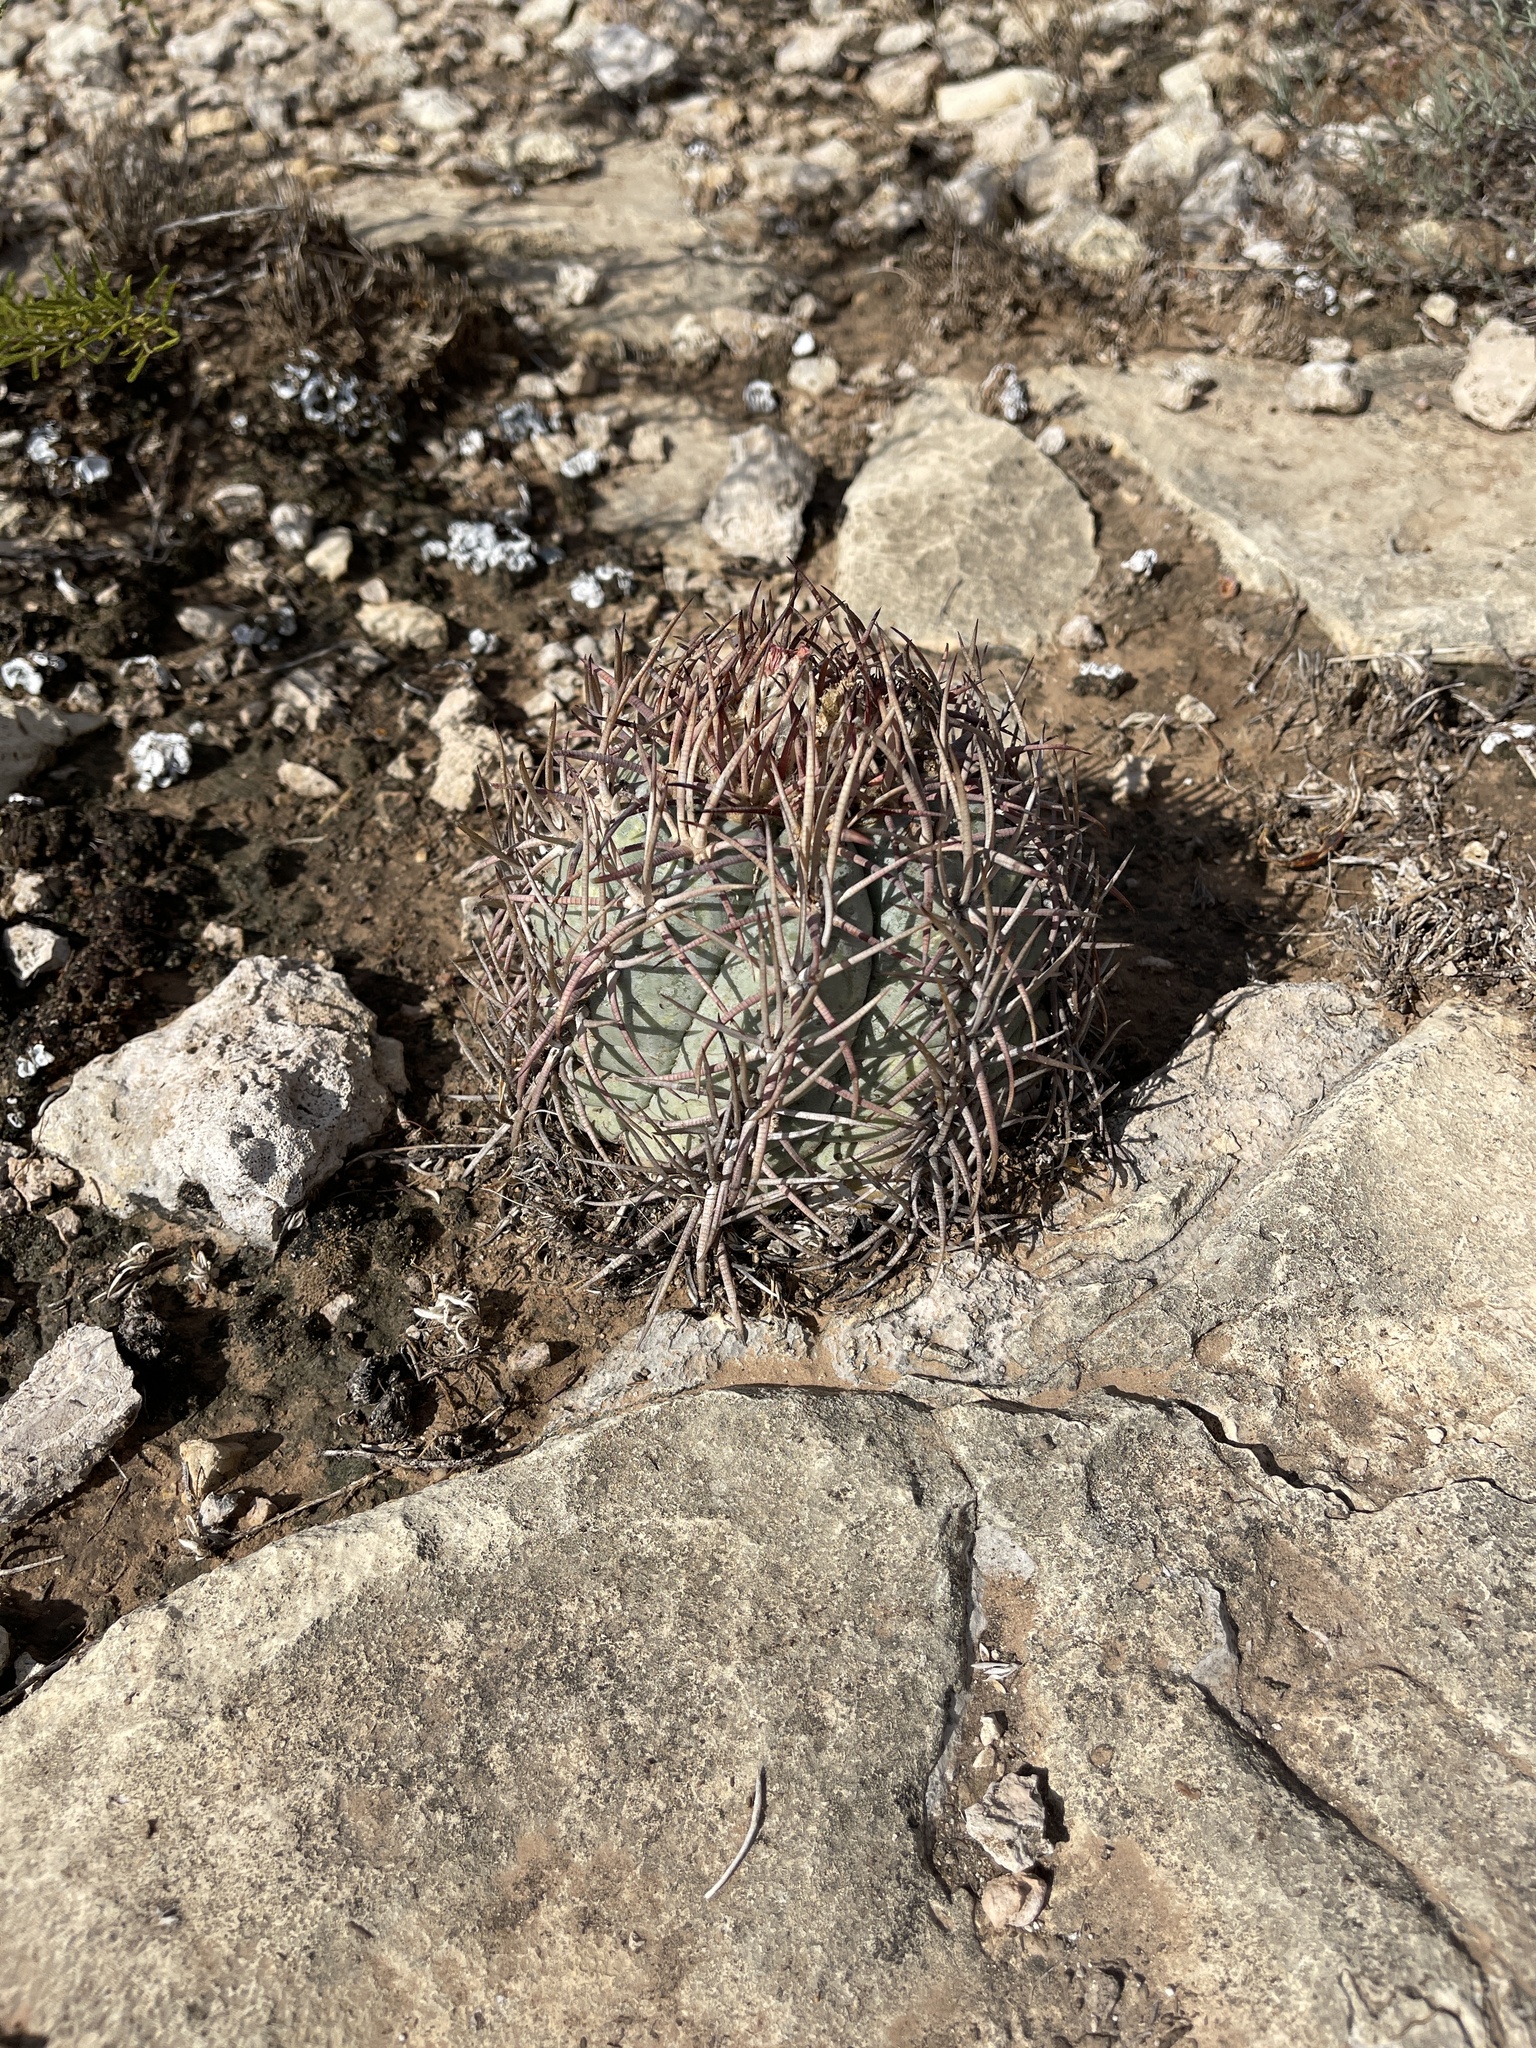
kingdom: Plantae
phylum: Tracheophyta
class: Magnoliopsida
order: Caryophyllales
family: Cactaceae
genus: Echinocactus
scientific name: Echinocactus horizonthalonius
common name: Devilshead
